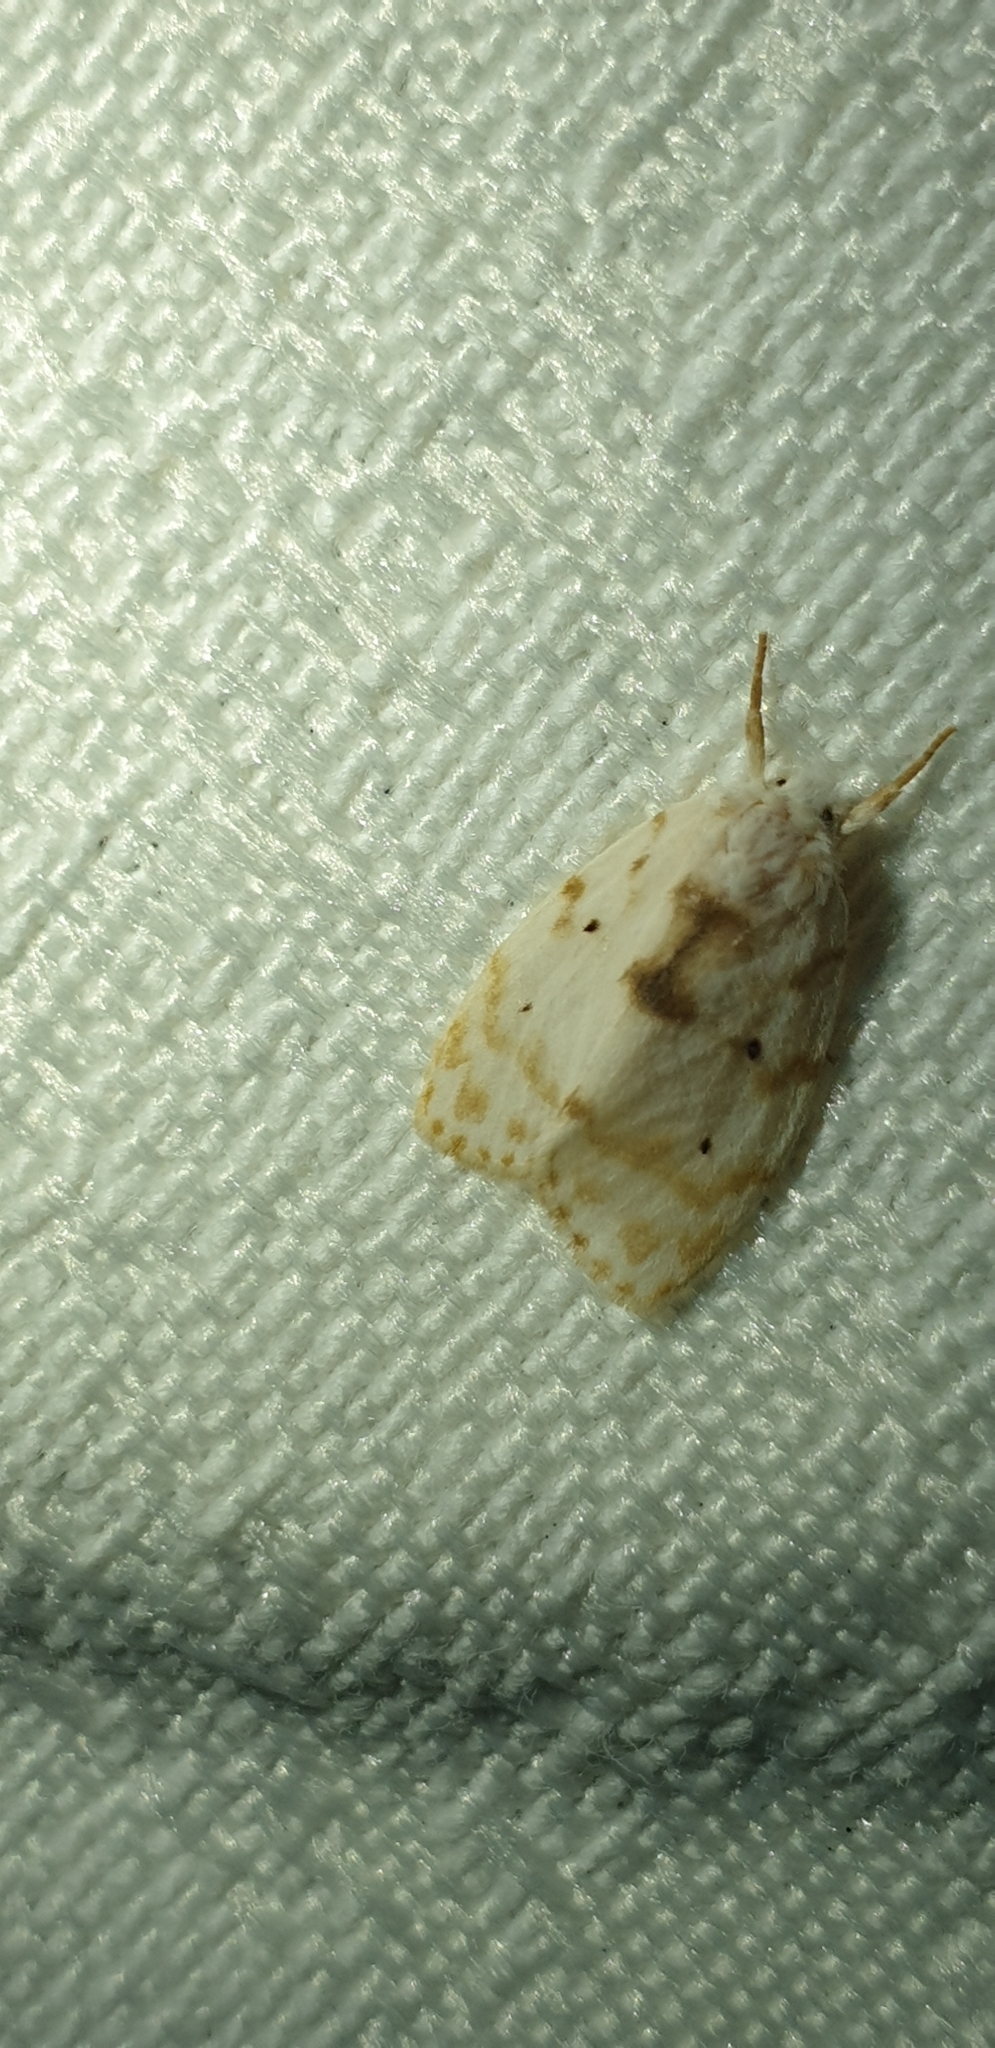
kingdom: Animalia
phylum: Arthropoda
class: Insecta
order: Lepidoptera
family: Erebidae
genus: Schistophleps
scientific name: Schistophleps albida
